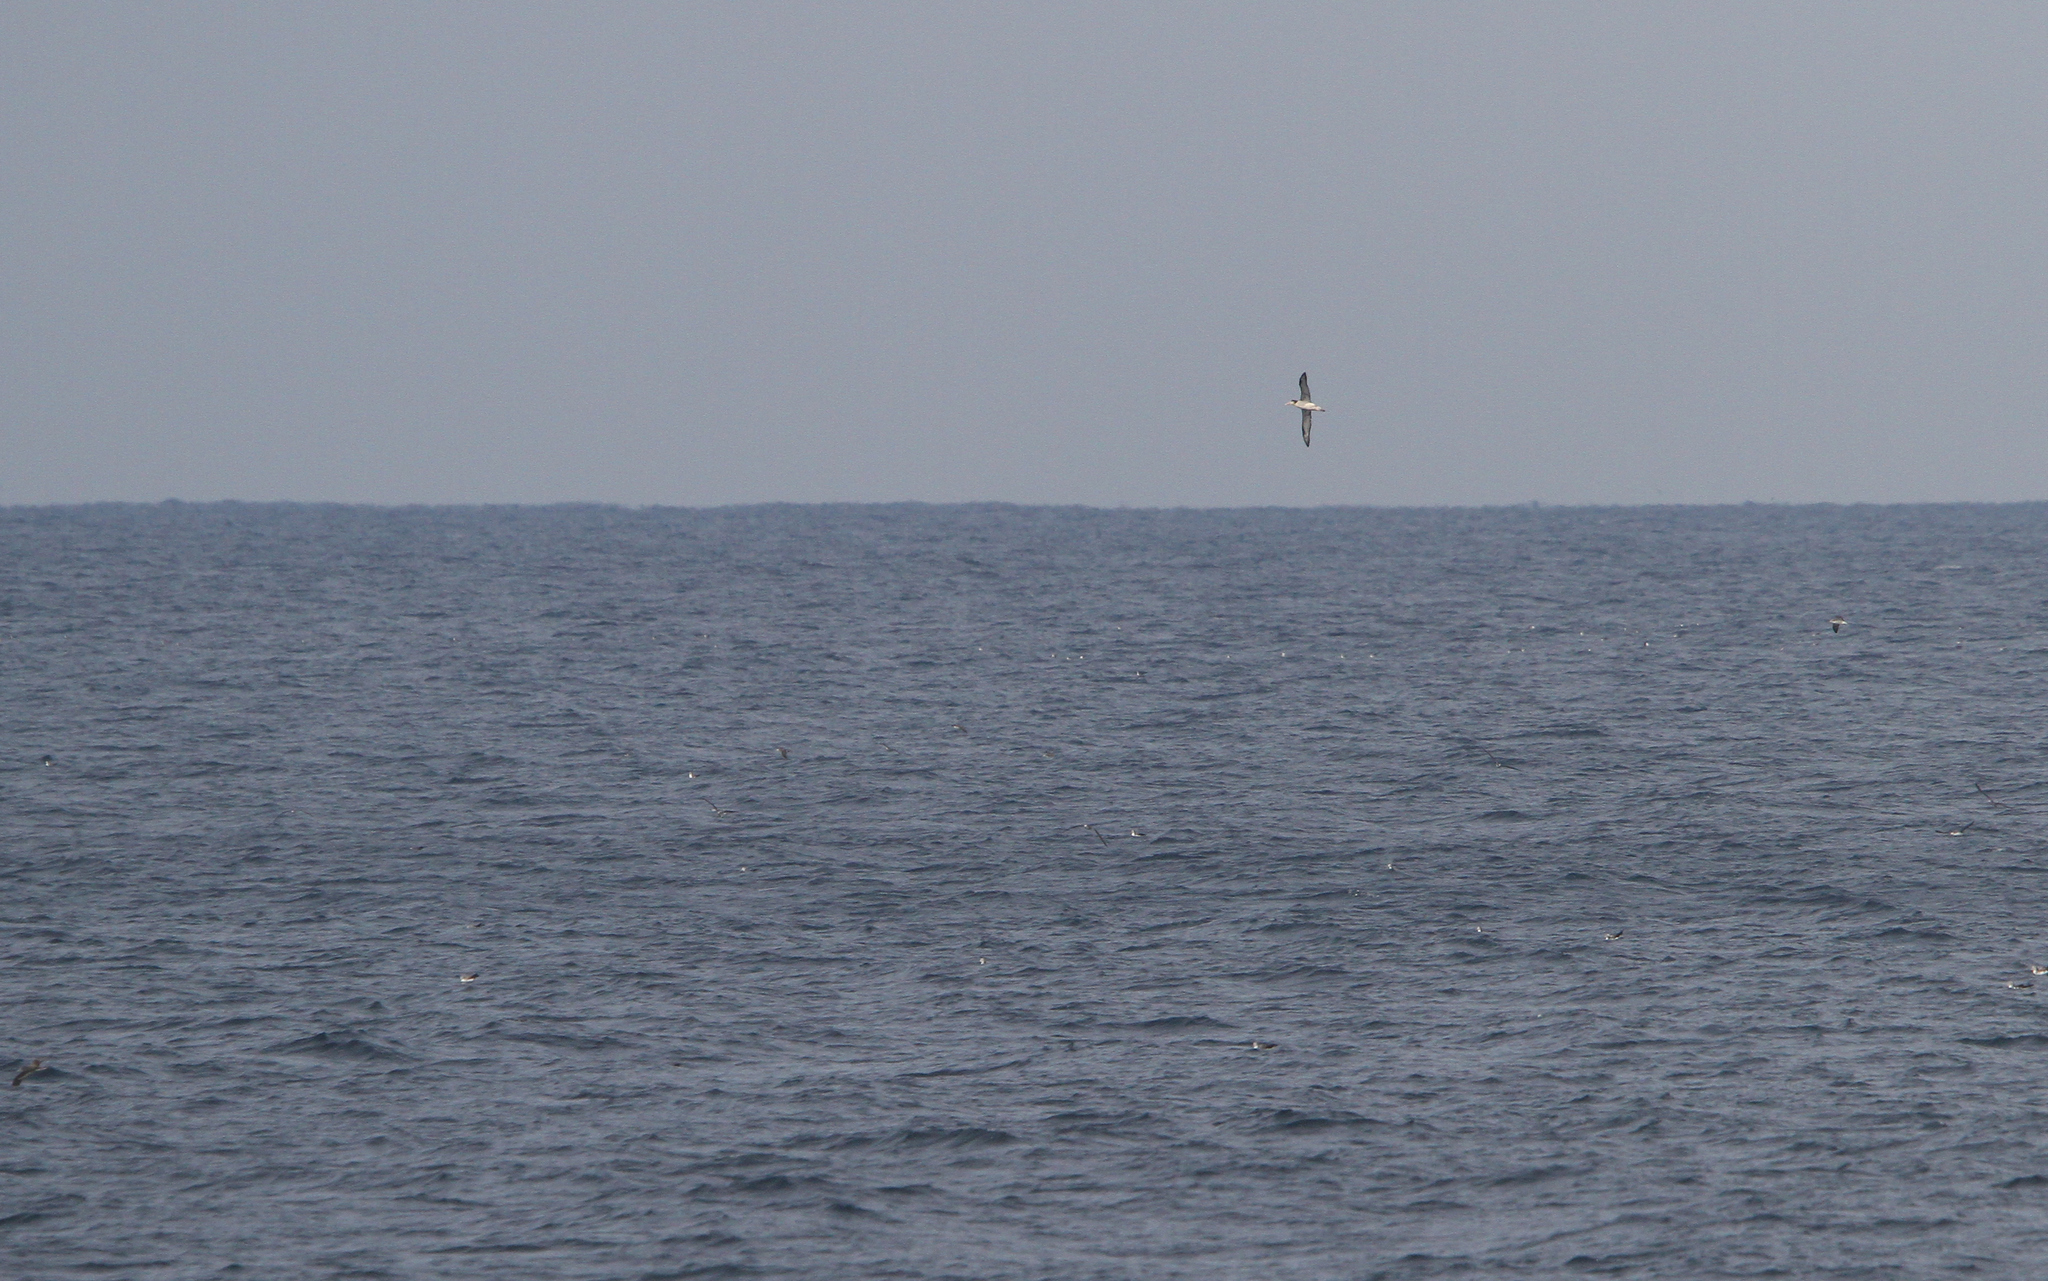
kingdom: Animalia
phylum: Chordata
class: Aves
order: Procellariiformes
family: Diomedeidae
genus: Phoebastria
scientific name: Phoebastria albatrus
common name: Short-tailed albatross
